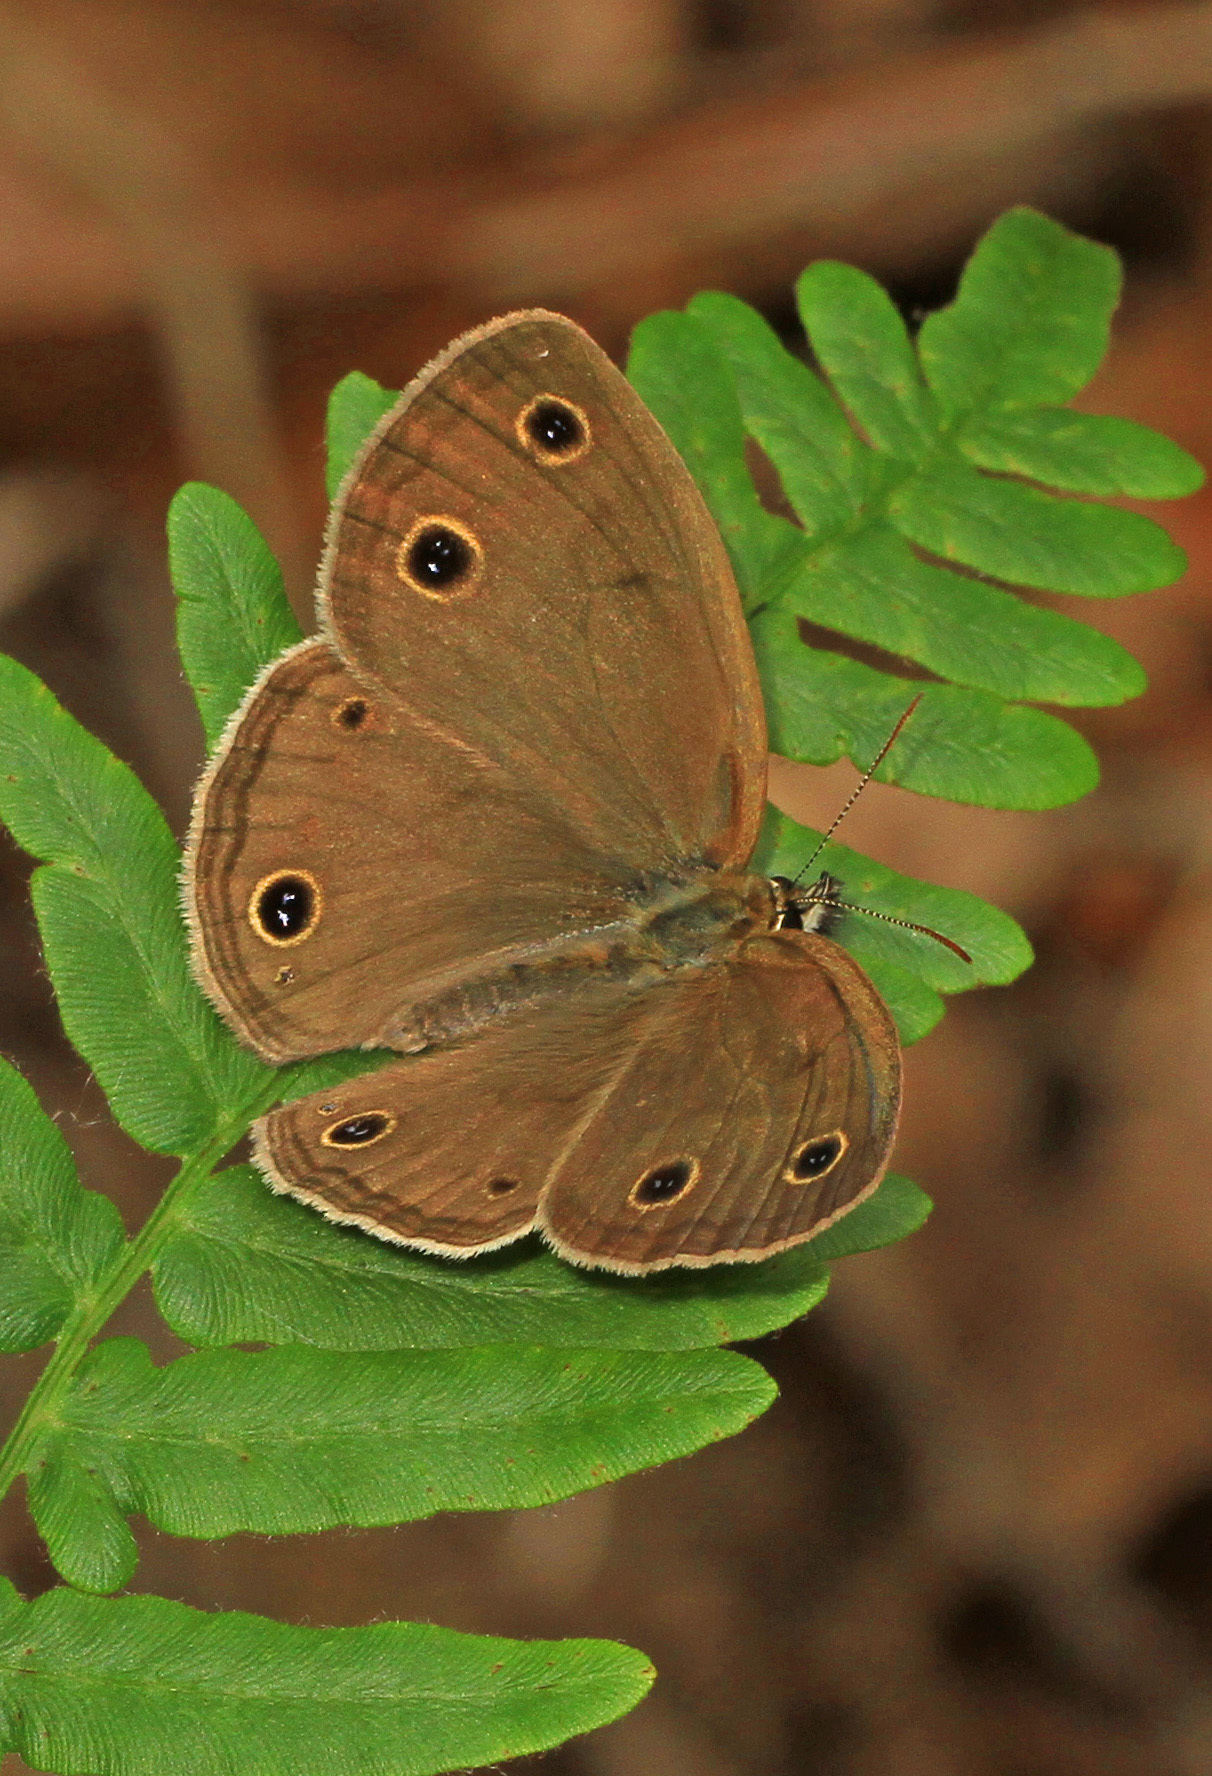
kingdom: Animalia
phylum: Arthropoda
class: Insecta
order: Lepidoptera
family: Nymphalidae
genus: Euptychia
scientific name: Euptychia cymela
